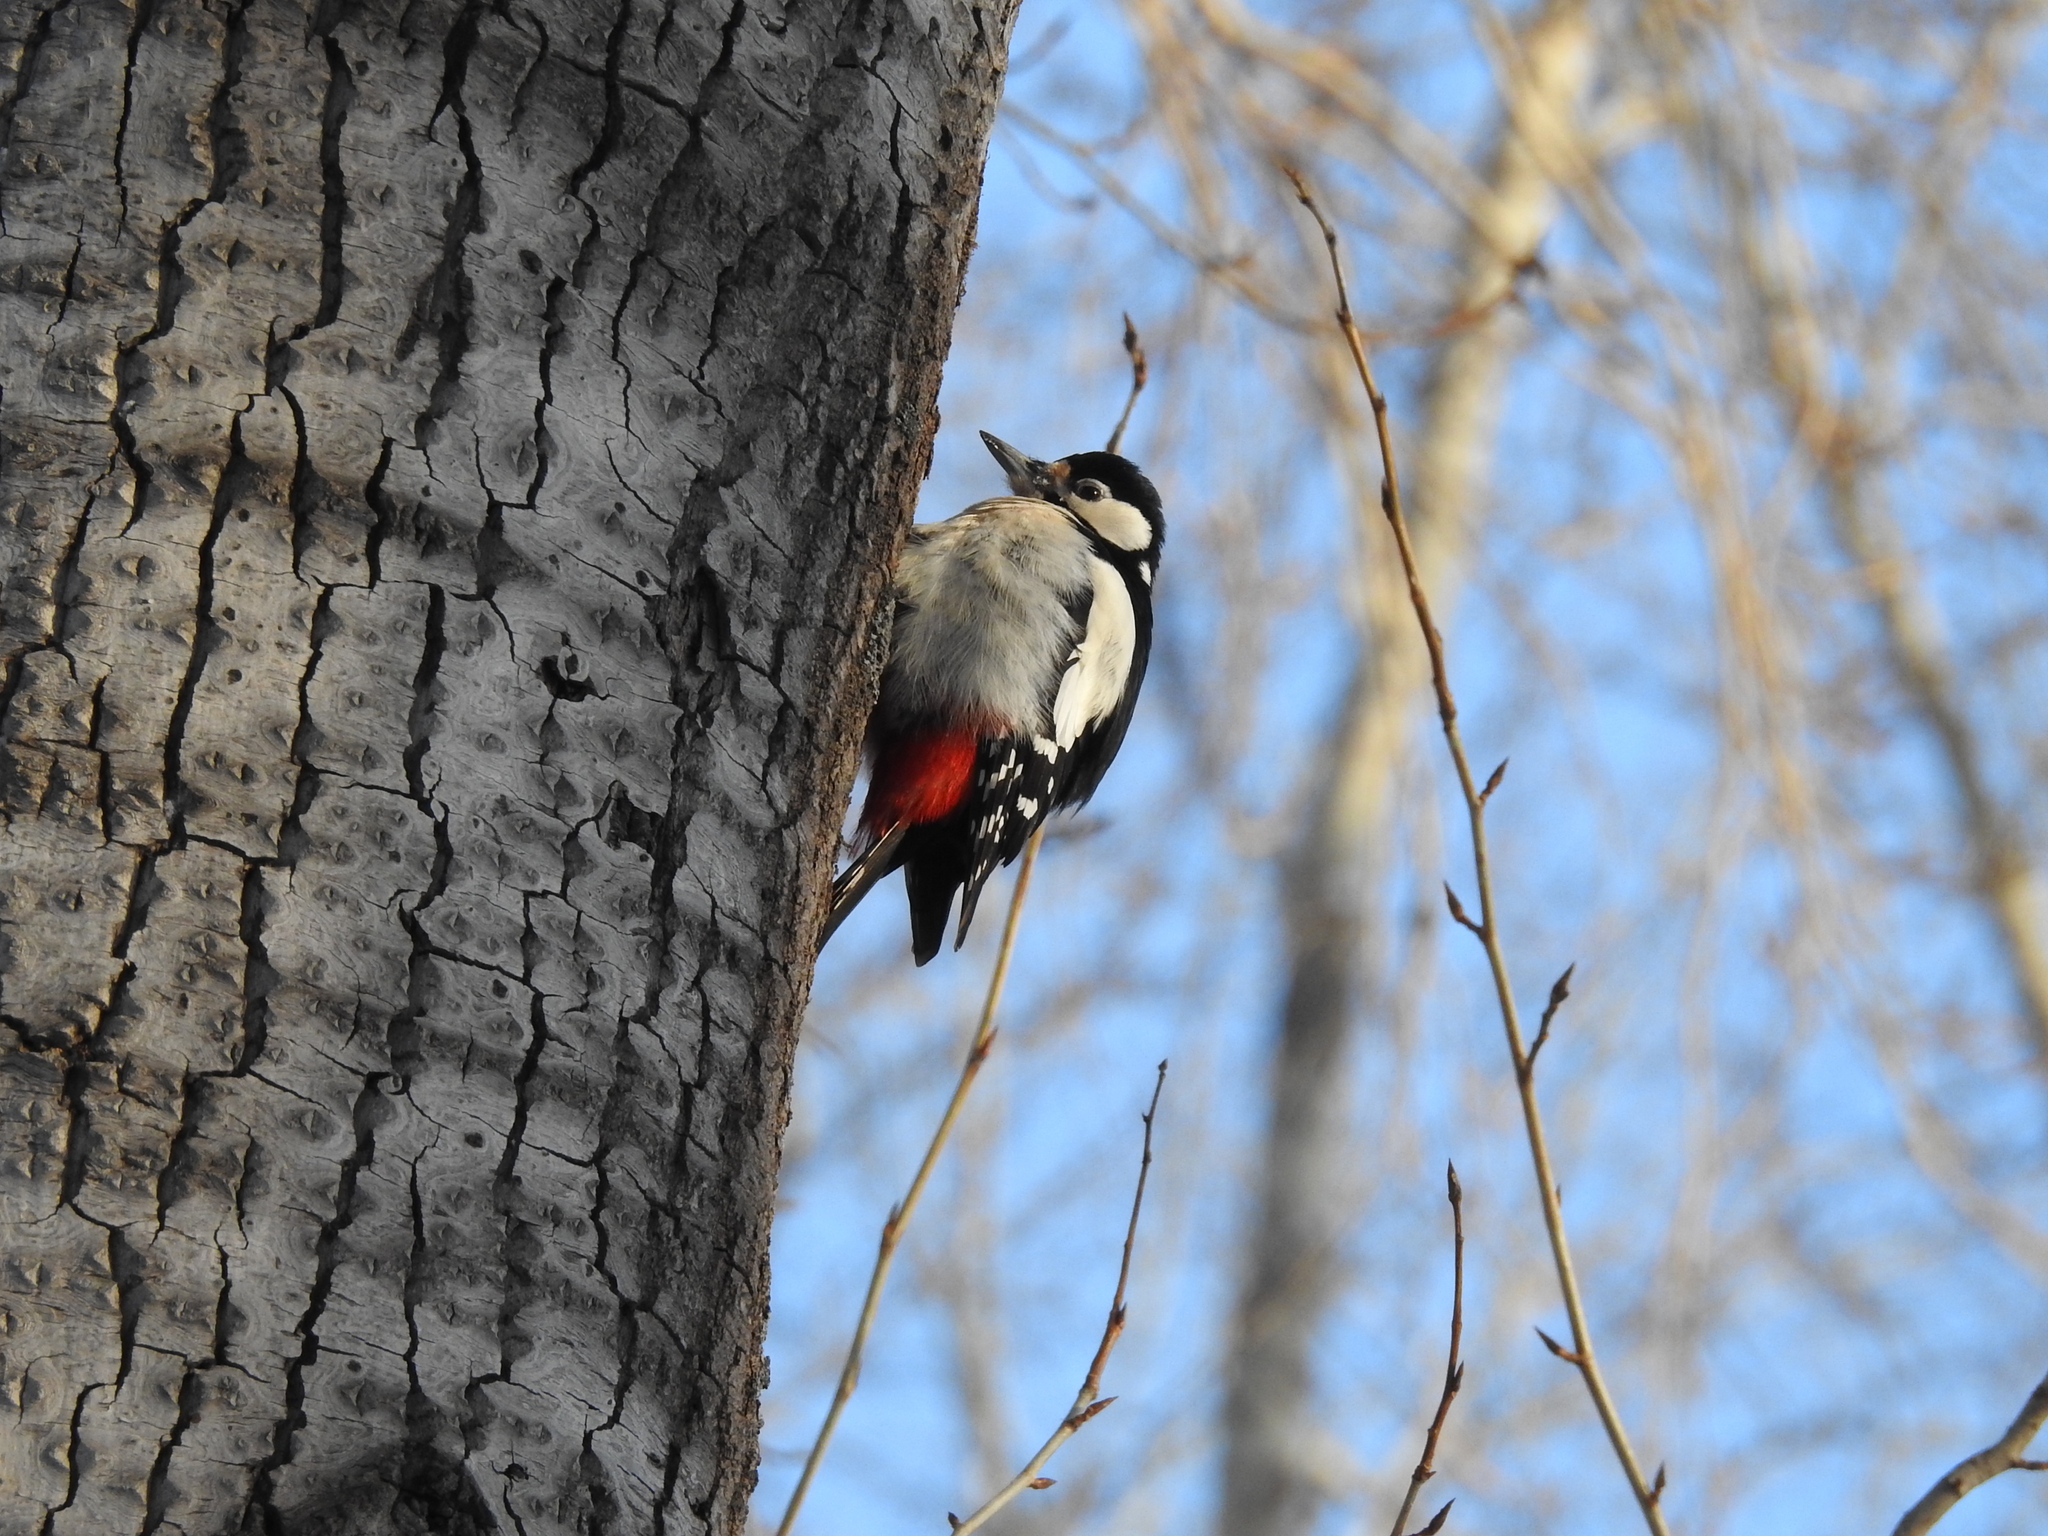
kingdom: Animalia
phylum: Chordata
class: Aves
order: Piciformes
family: Picidae
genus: Dendrocopos
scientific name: Dendrocopos major
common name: Great spotted woodpecker
